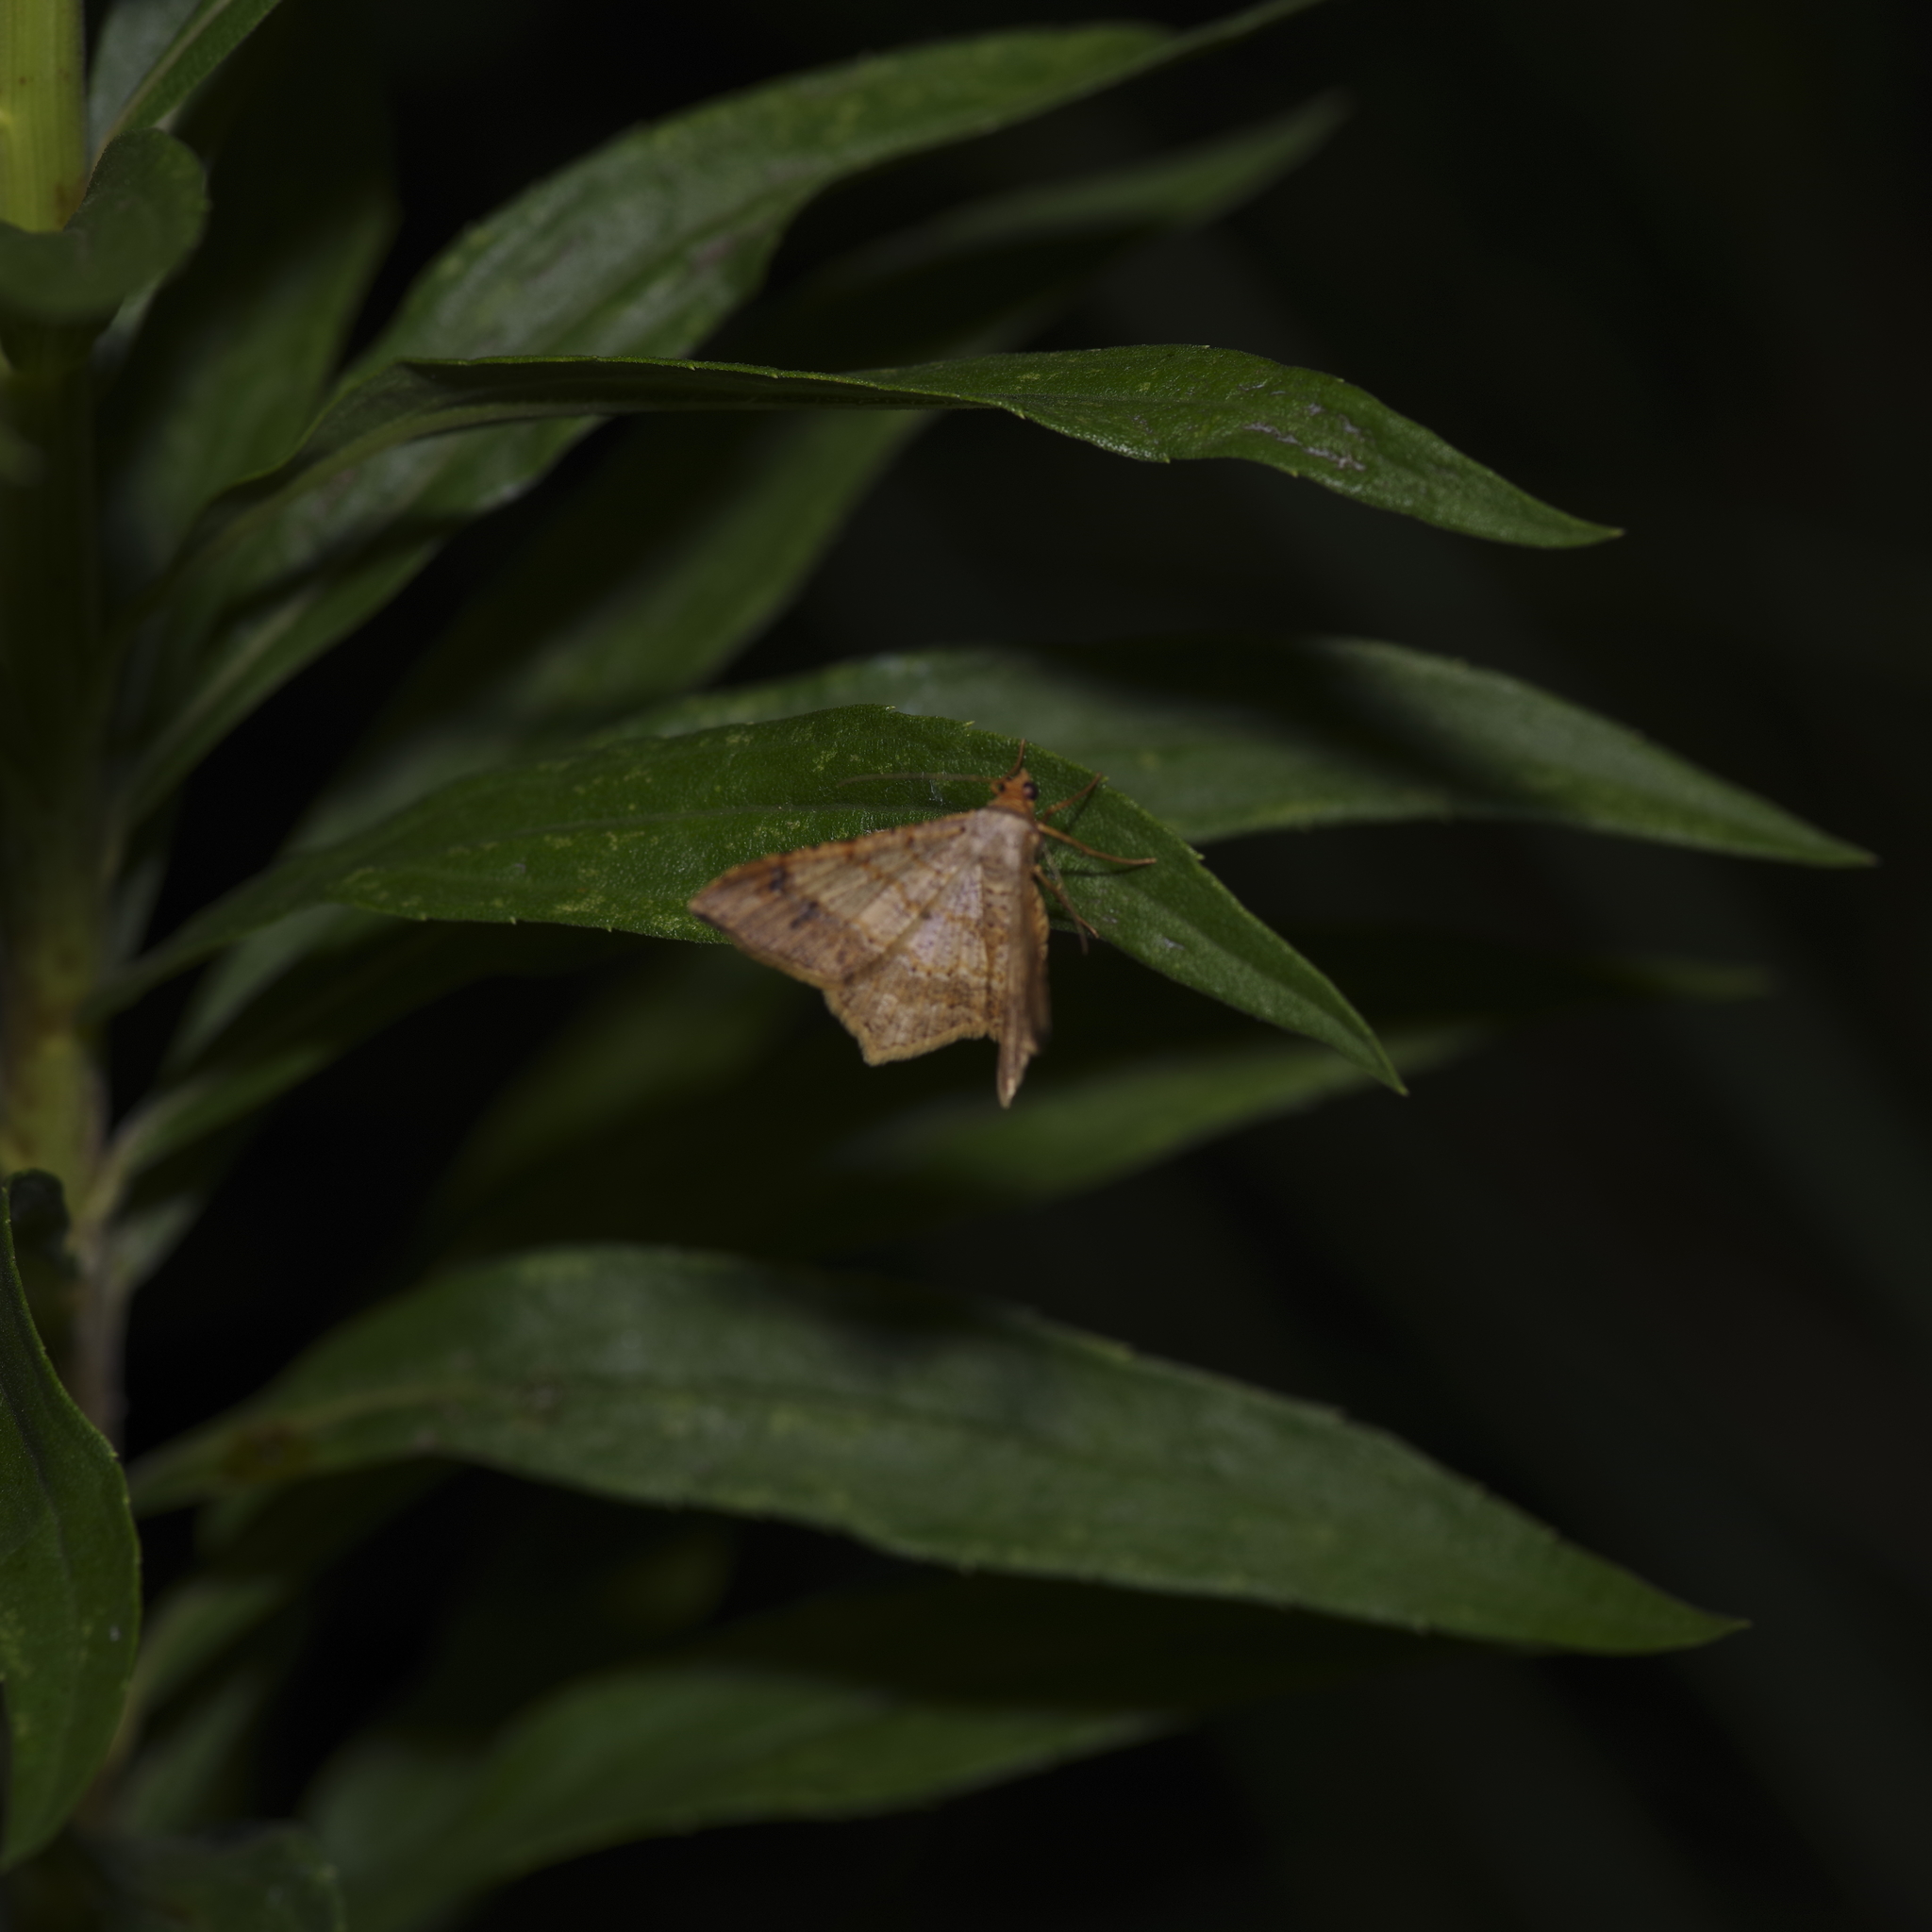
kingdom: Animalia
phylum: Arthropoda
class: Insecta
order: Lepidoptera
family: Geometridae
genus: Macaria
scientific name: Macaria abydata
